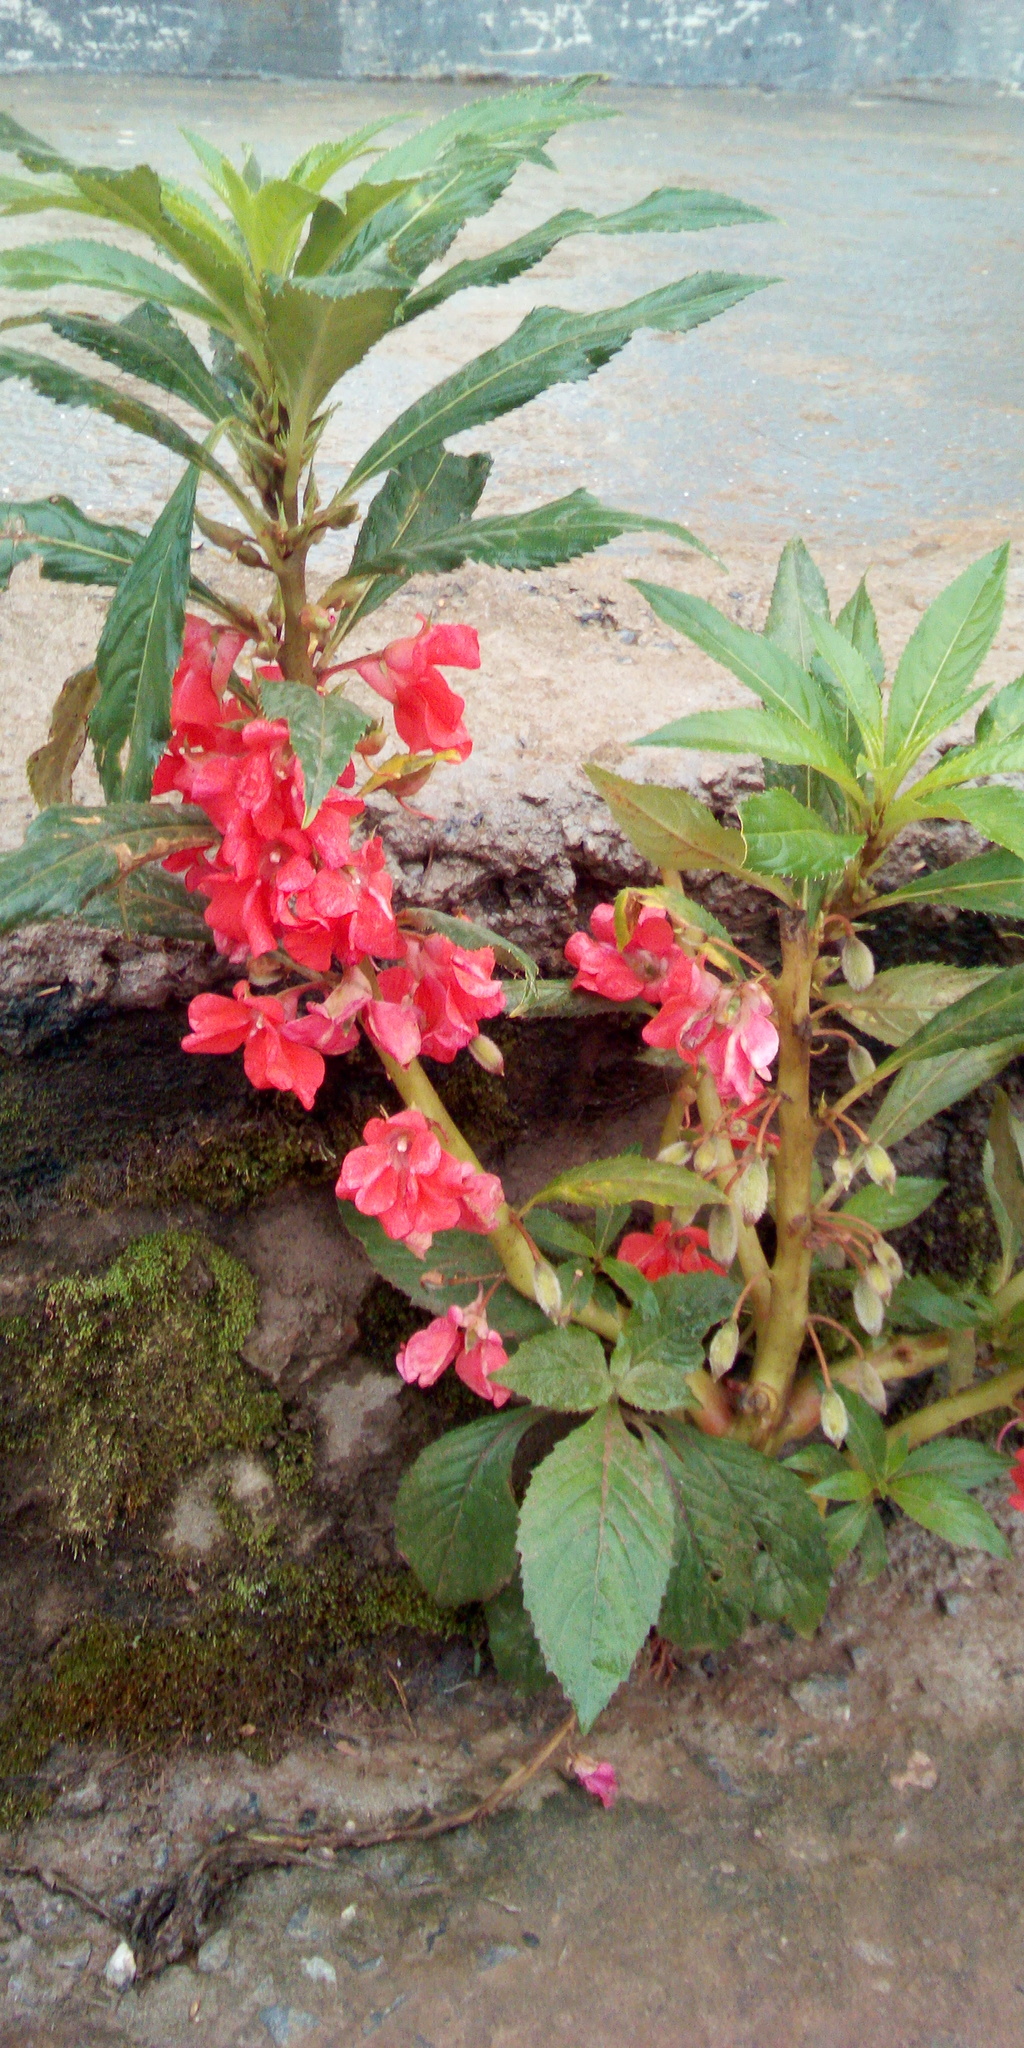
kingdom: Plantae
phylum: Tracheophyta
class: Magnoliopsida
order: Ericales
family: Balsaminaceae
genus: Impatiens
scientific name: Impatiens balsamina
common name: Balsam
